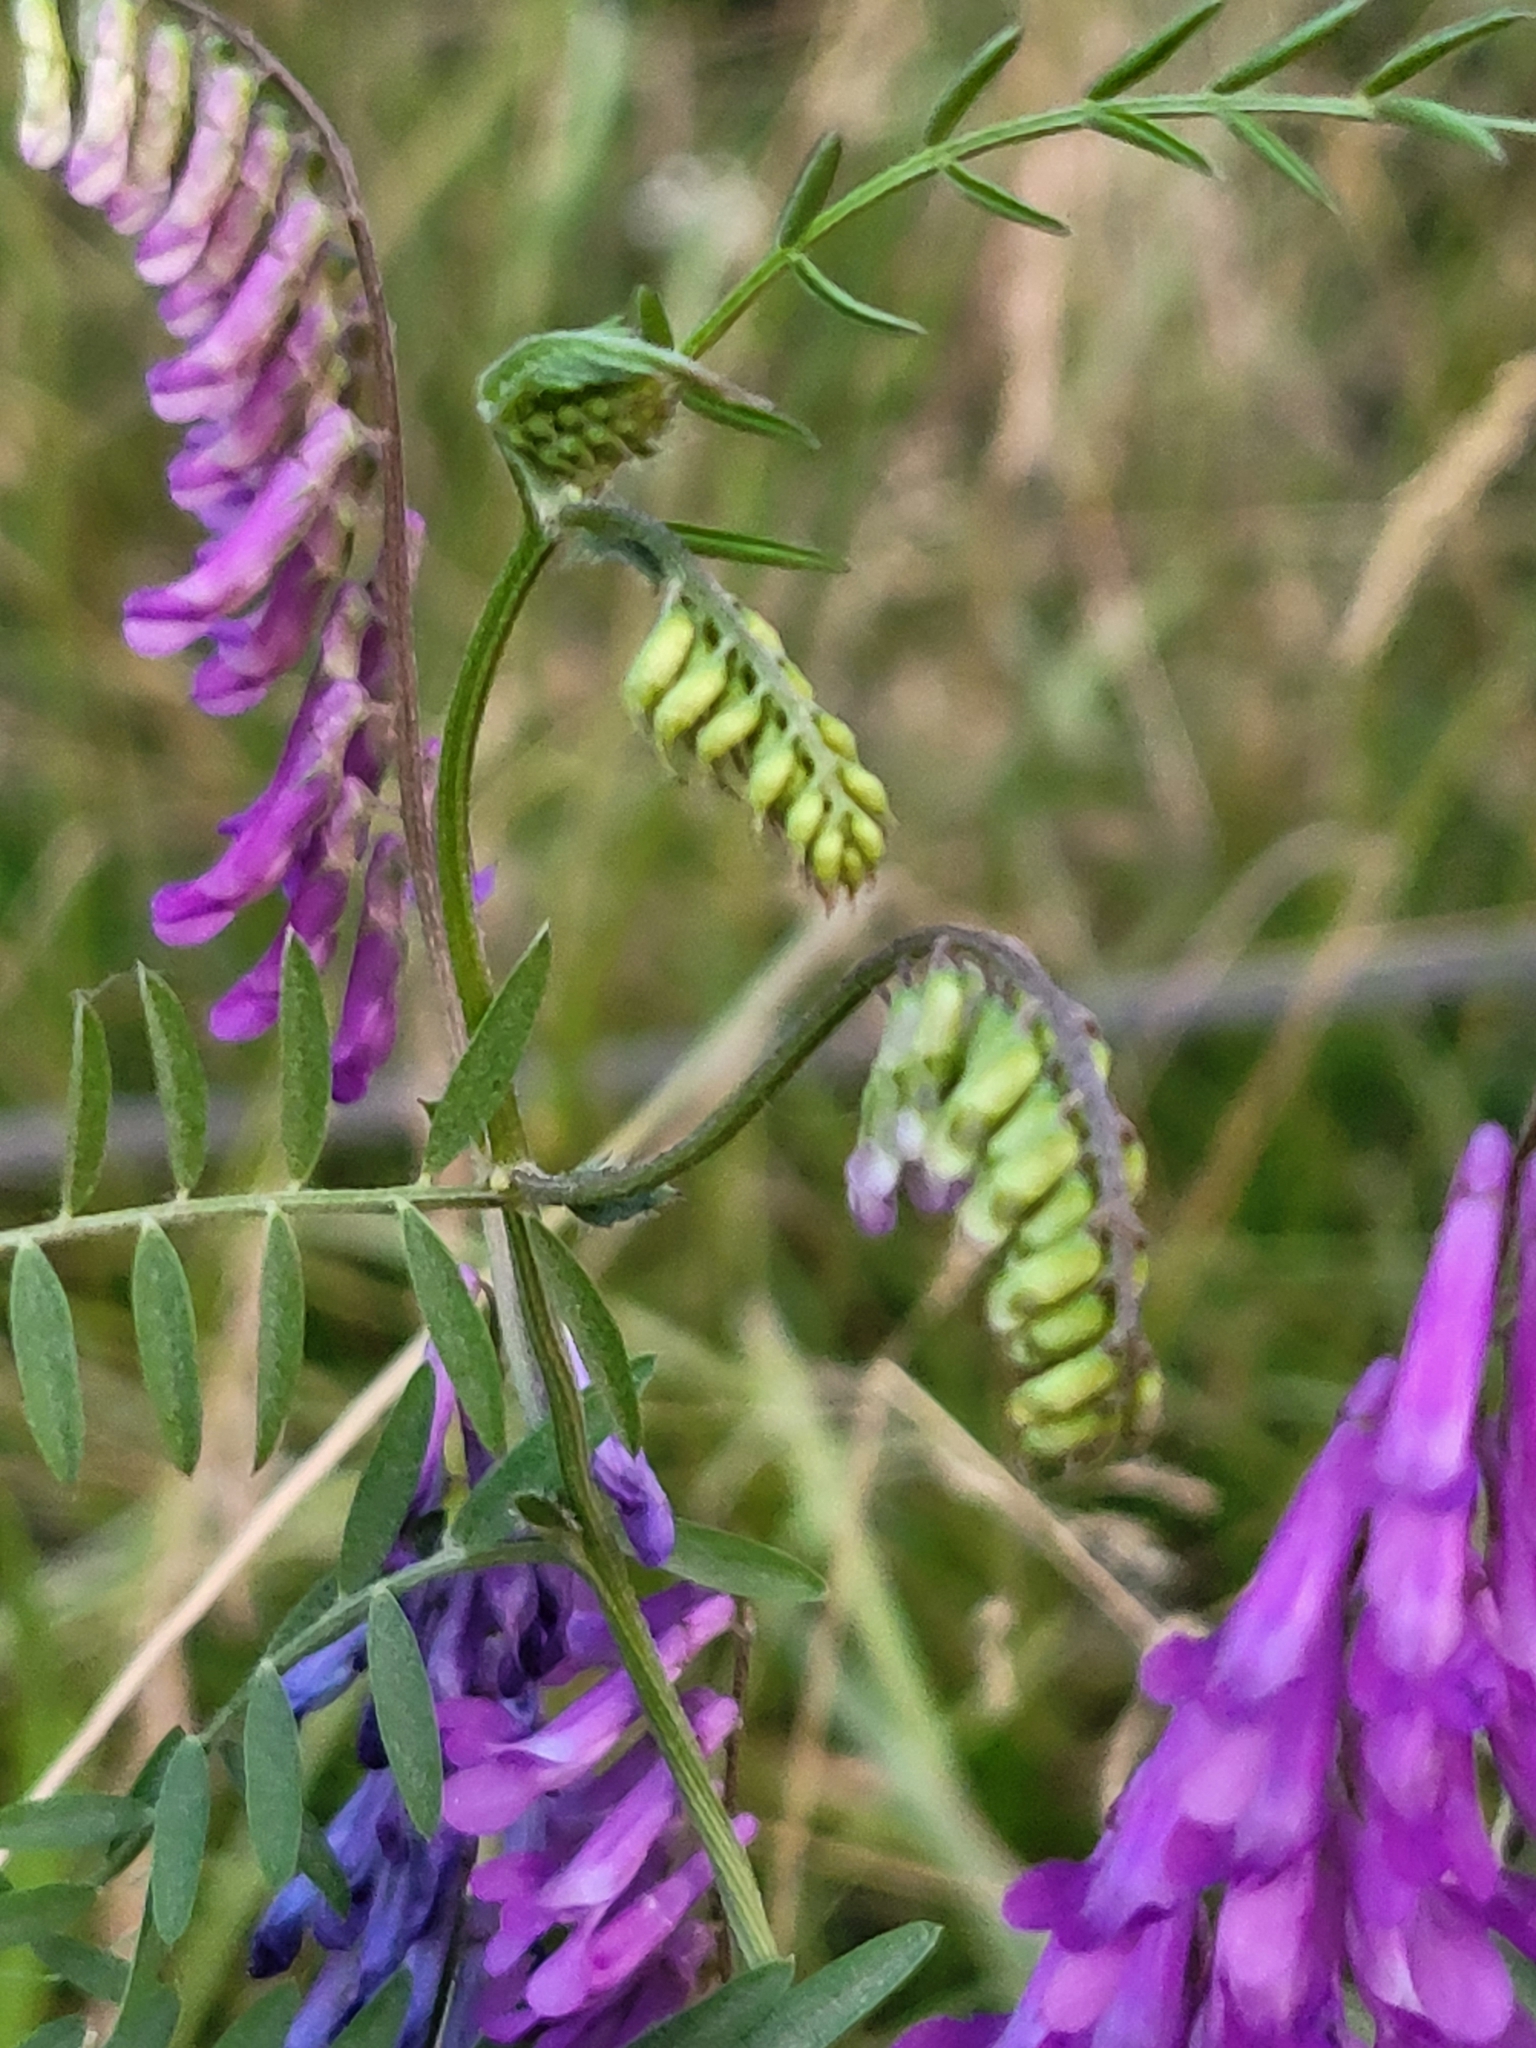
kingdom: Plantae
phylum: Tracheophyta
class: Magnoliopsida
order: Fabales
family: Fabaceae
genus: Vicia
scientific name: Vicia villosa
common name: Fodder vetch
